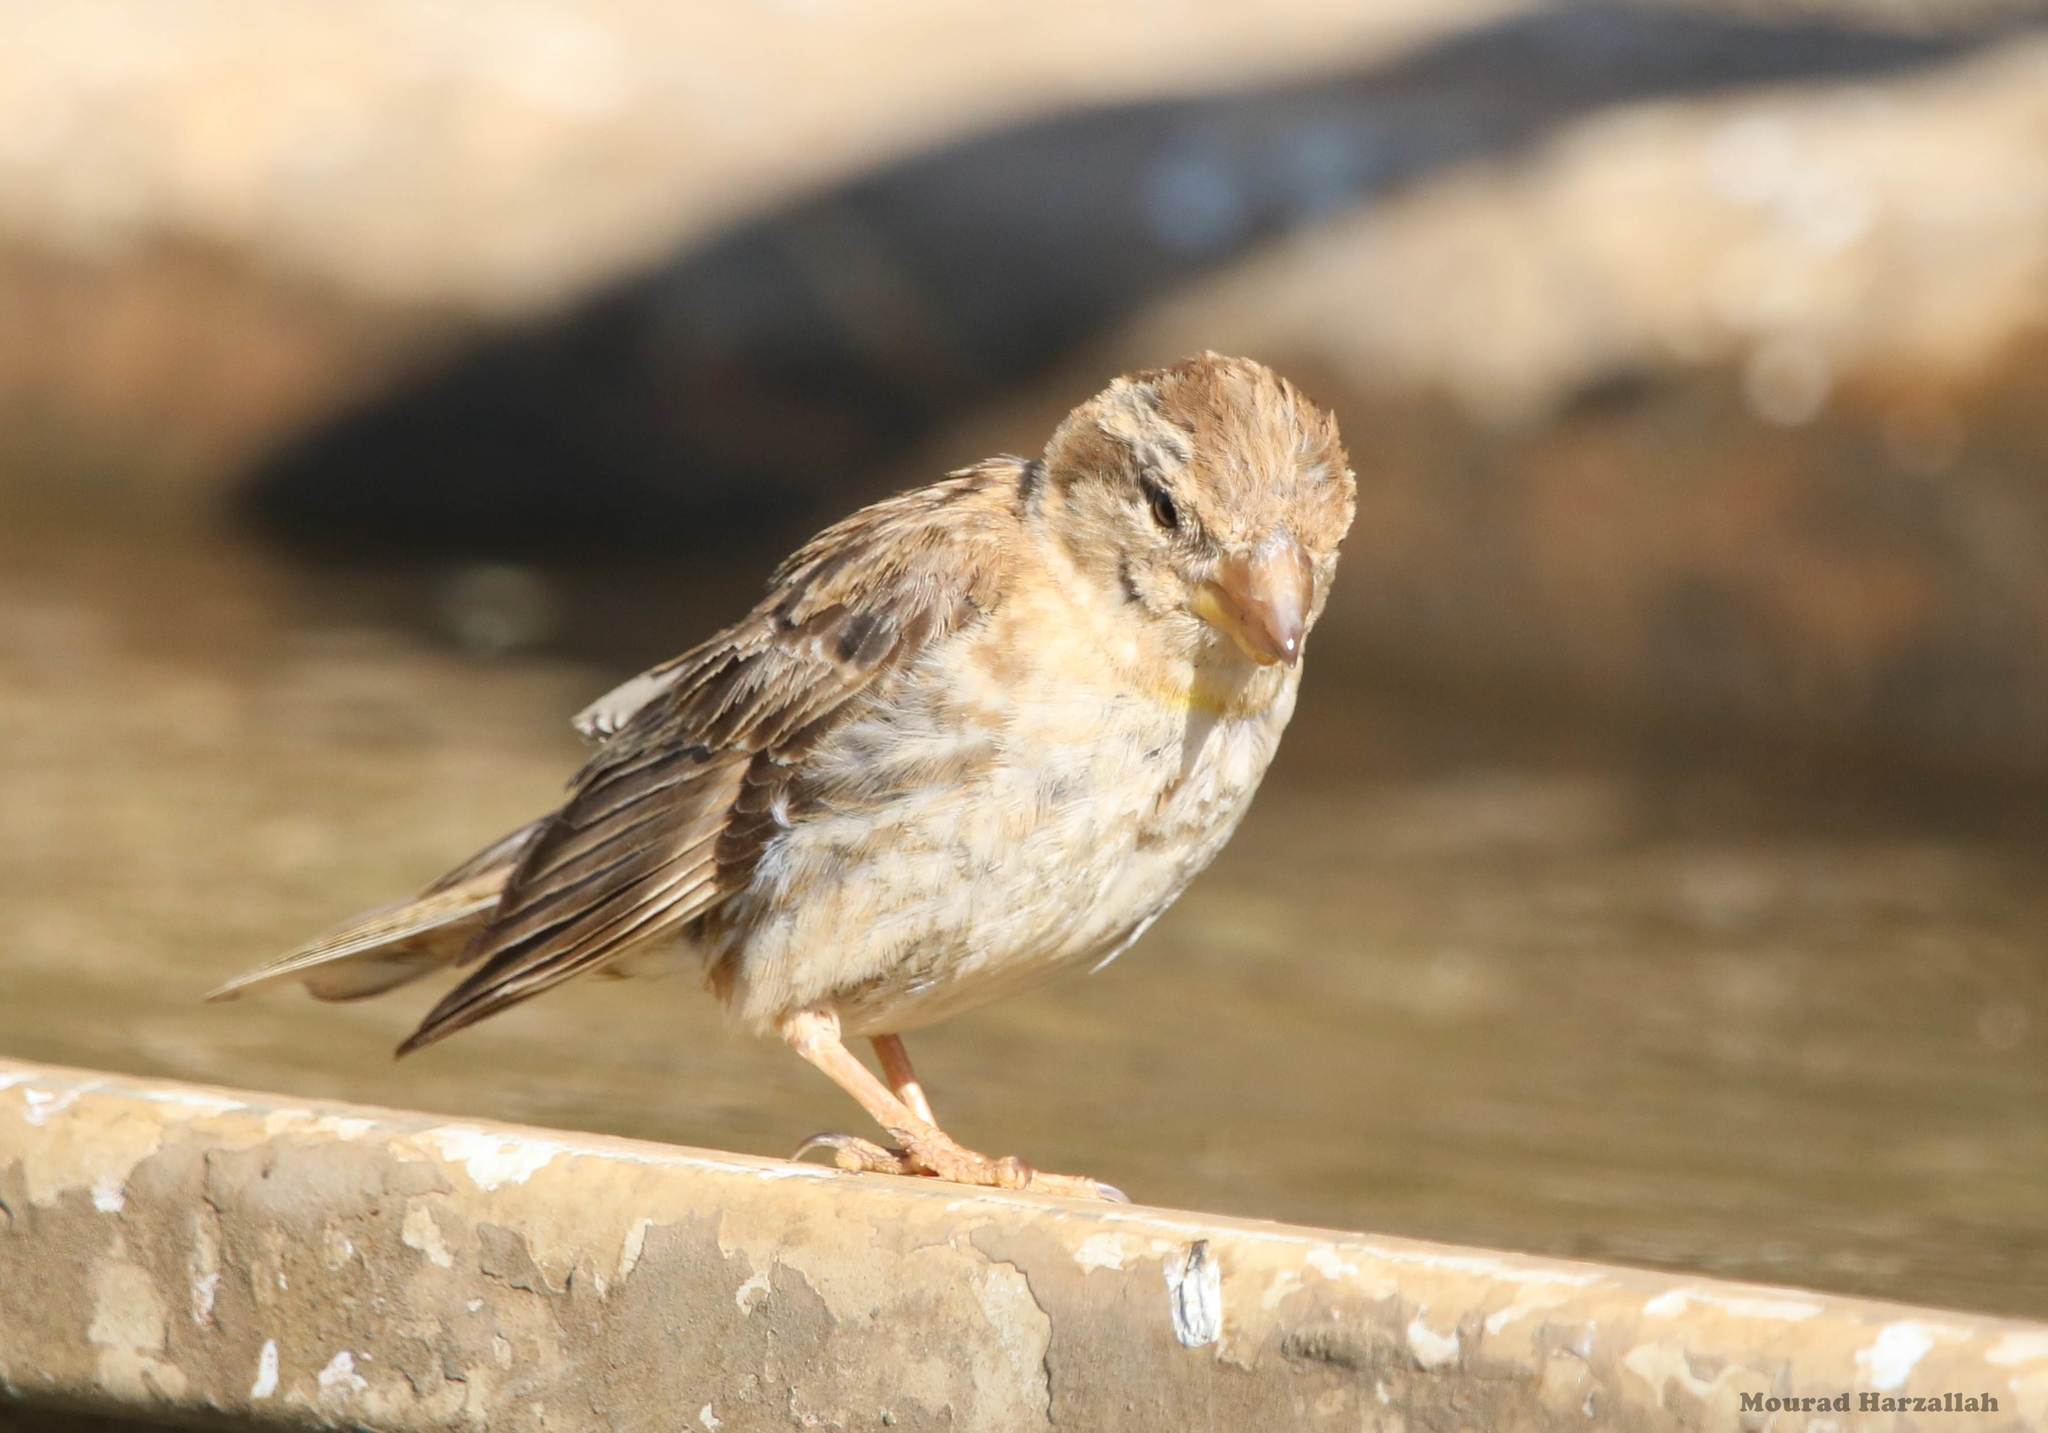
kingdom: Animalia
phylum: Chordata
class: Aves
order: Passeriformes
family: Passeridae
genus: Petronia
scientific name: Petronia petronia
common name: Rock sparrow
